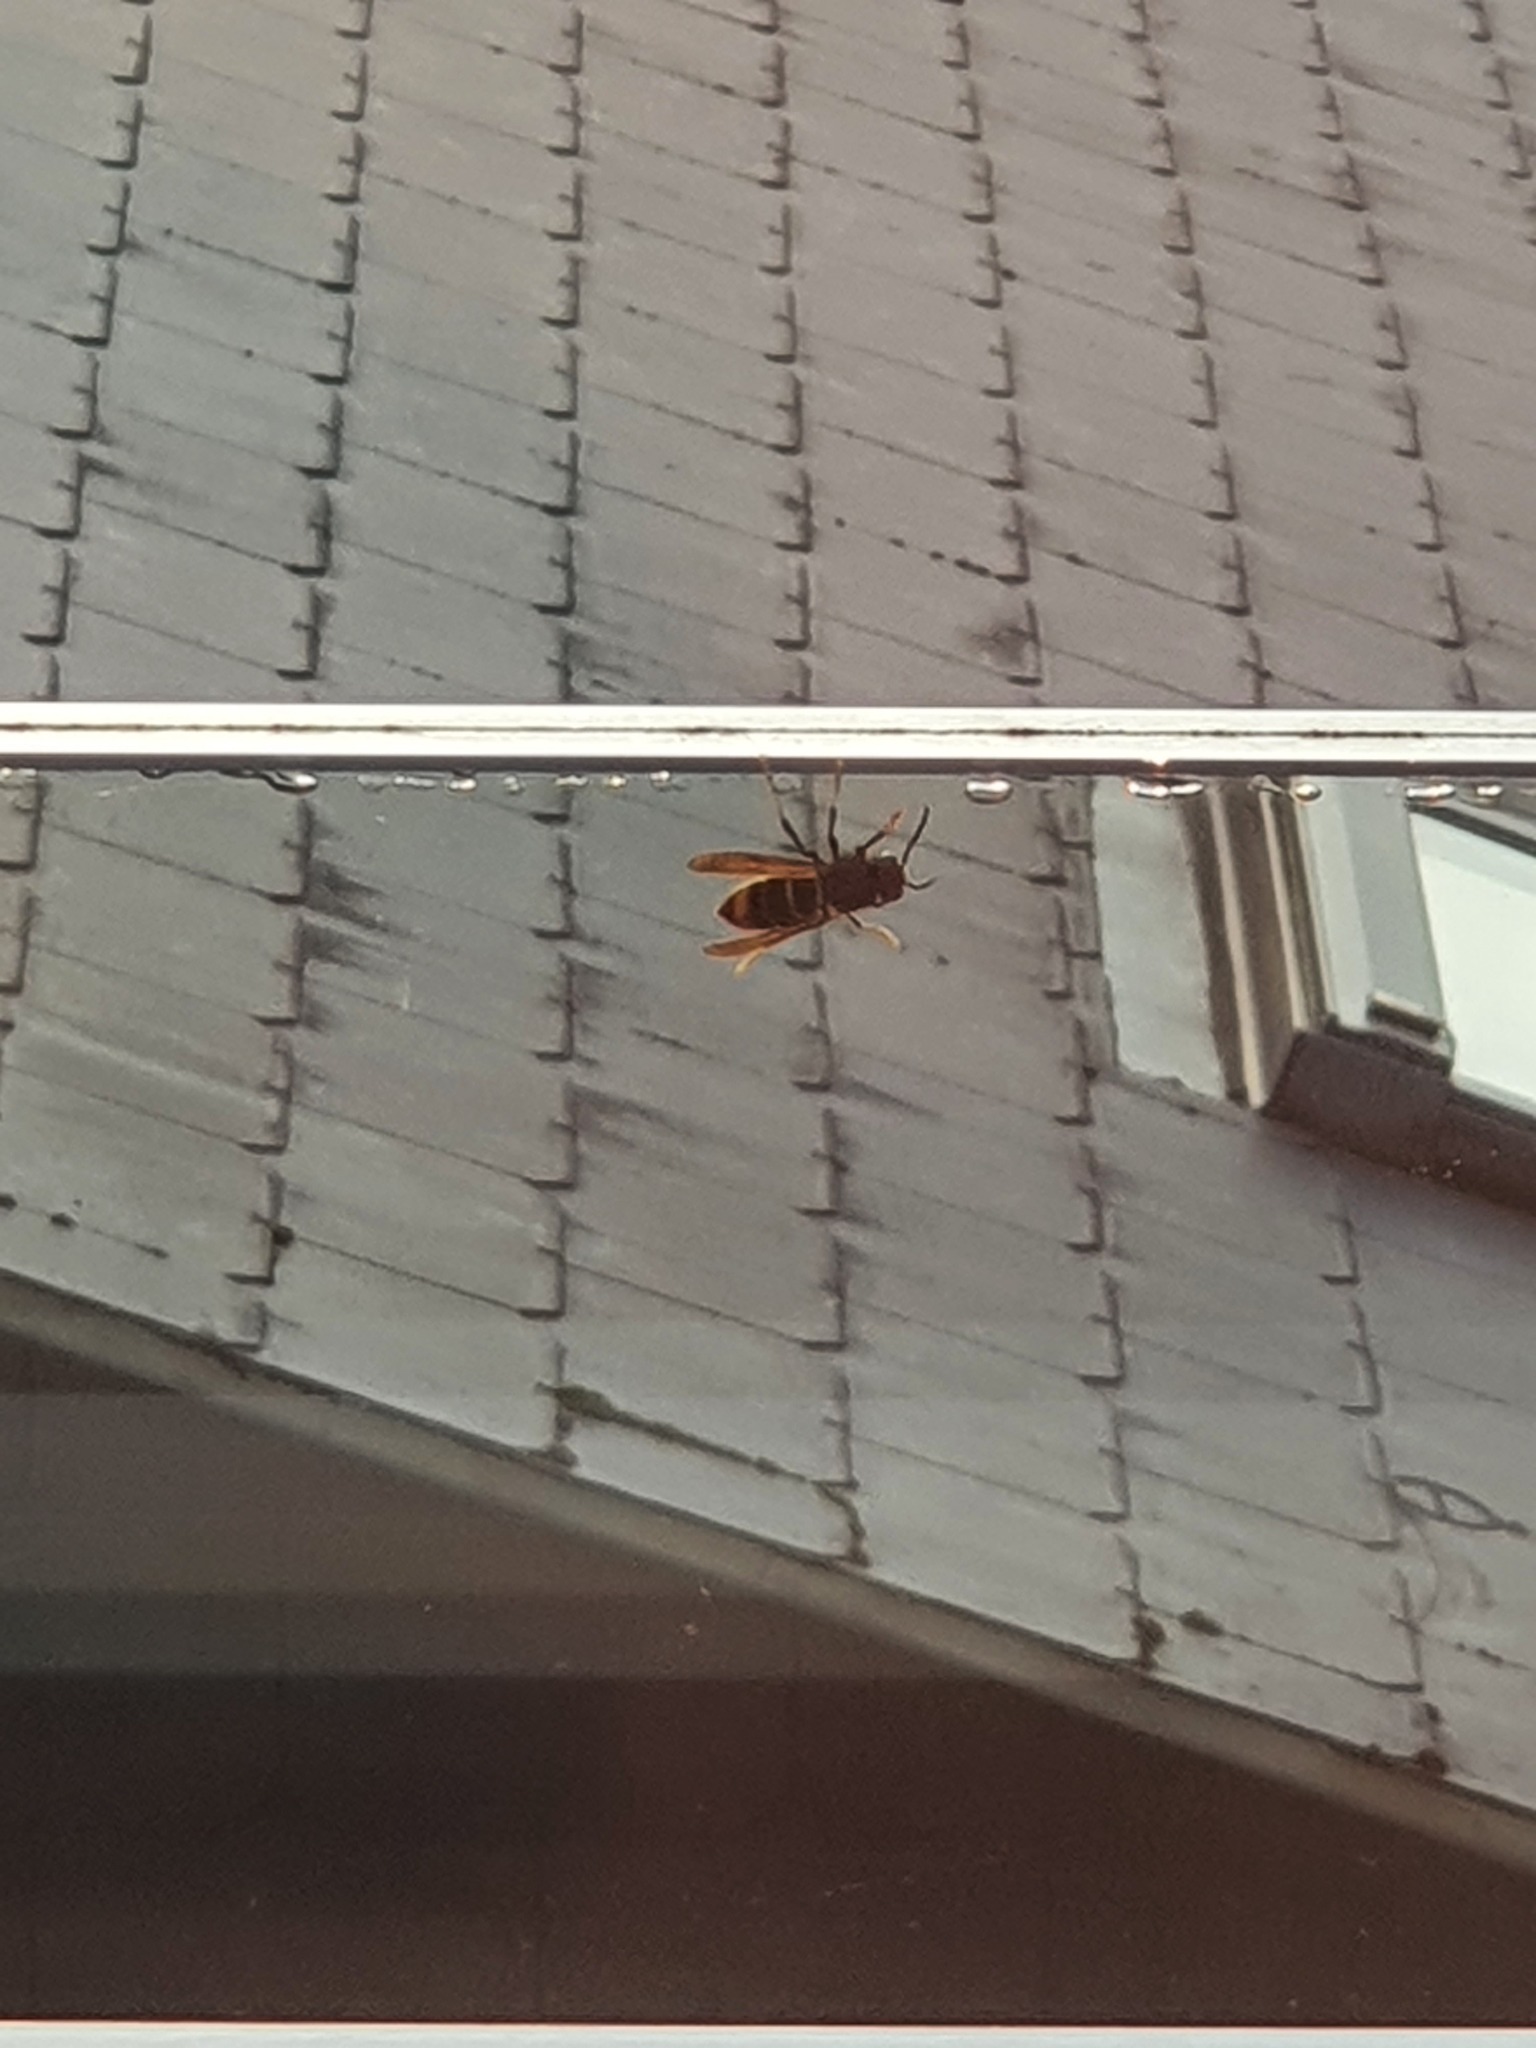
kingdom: Animalia
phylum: Arthropoda
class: Insecta
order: Hymenoptera
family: Vespidae
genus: Vespa
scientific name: Vespa velutina
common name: Asian hornet
